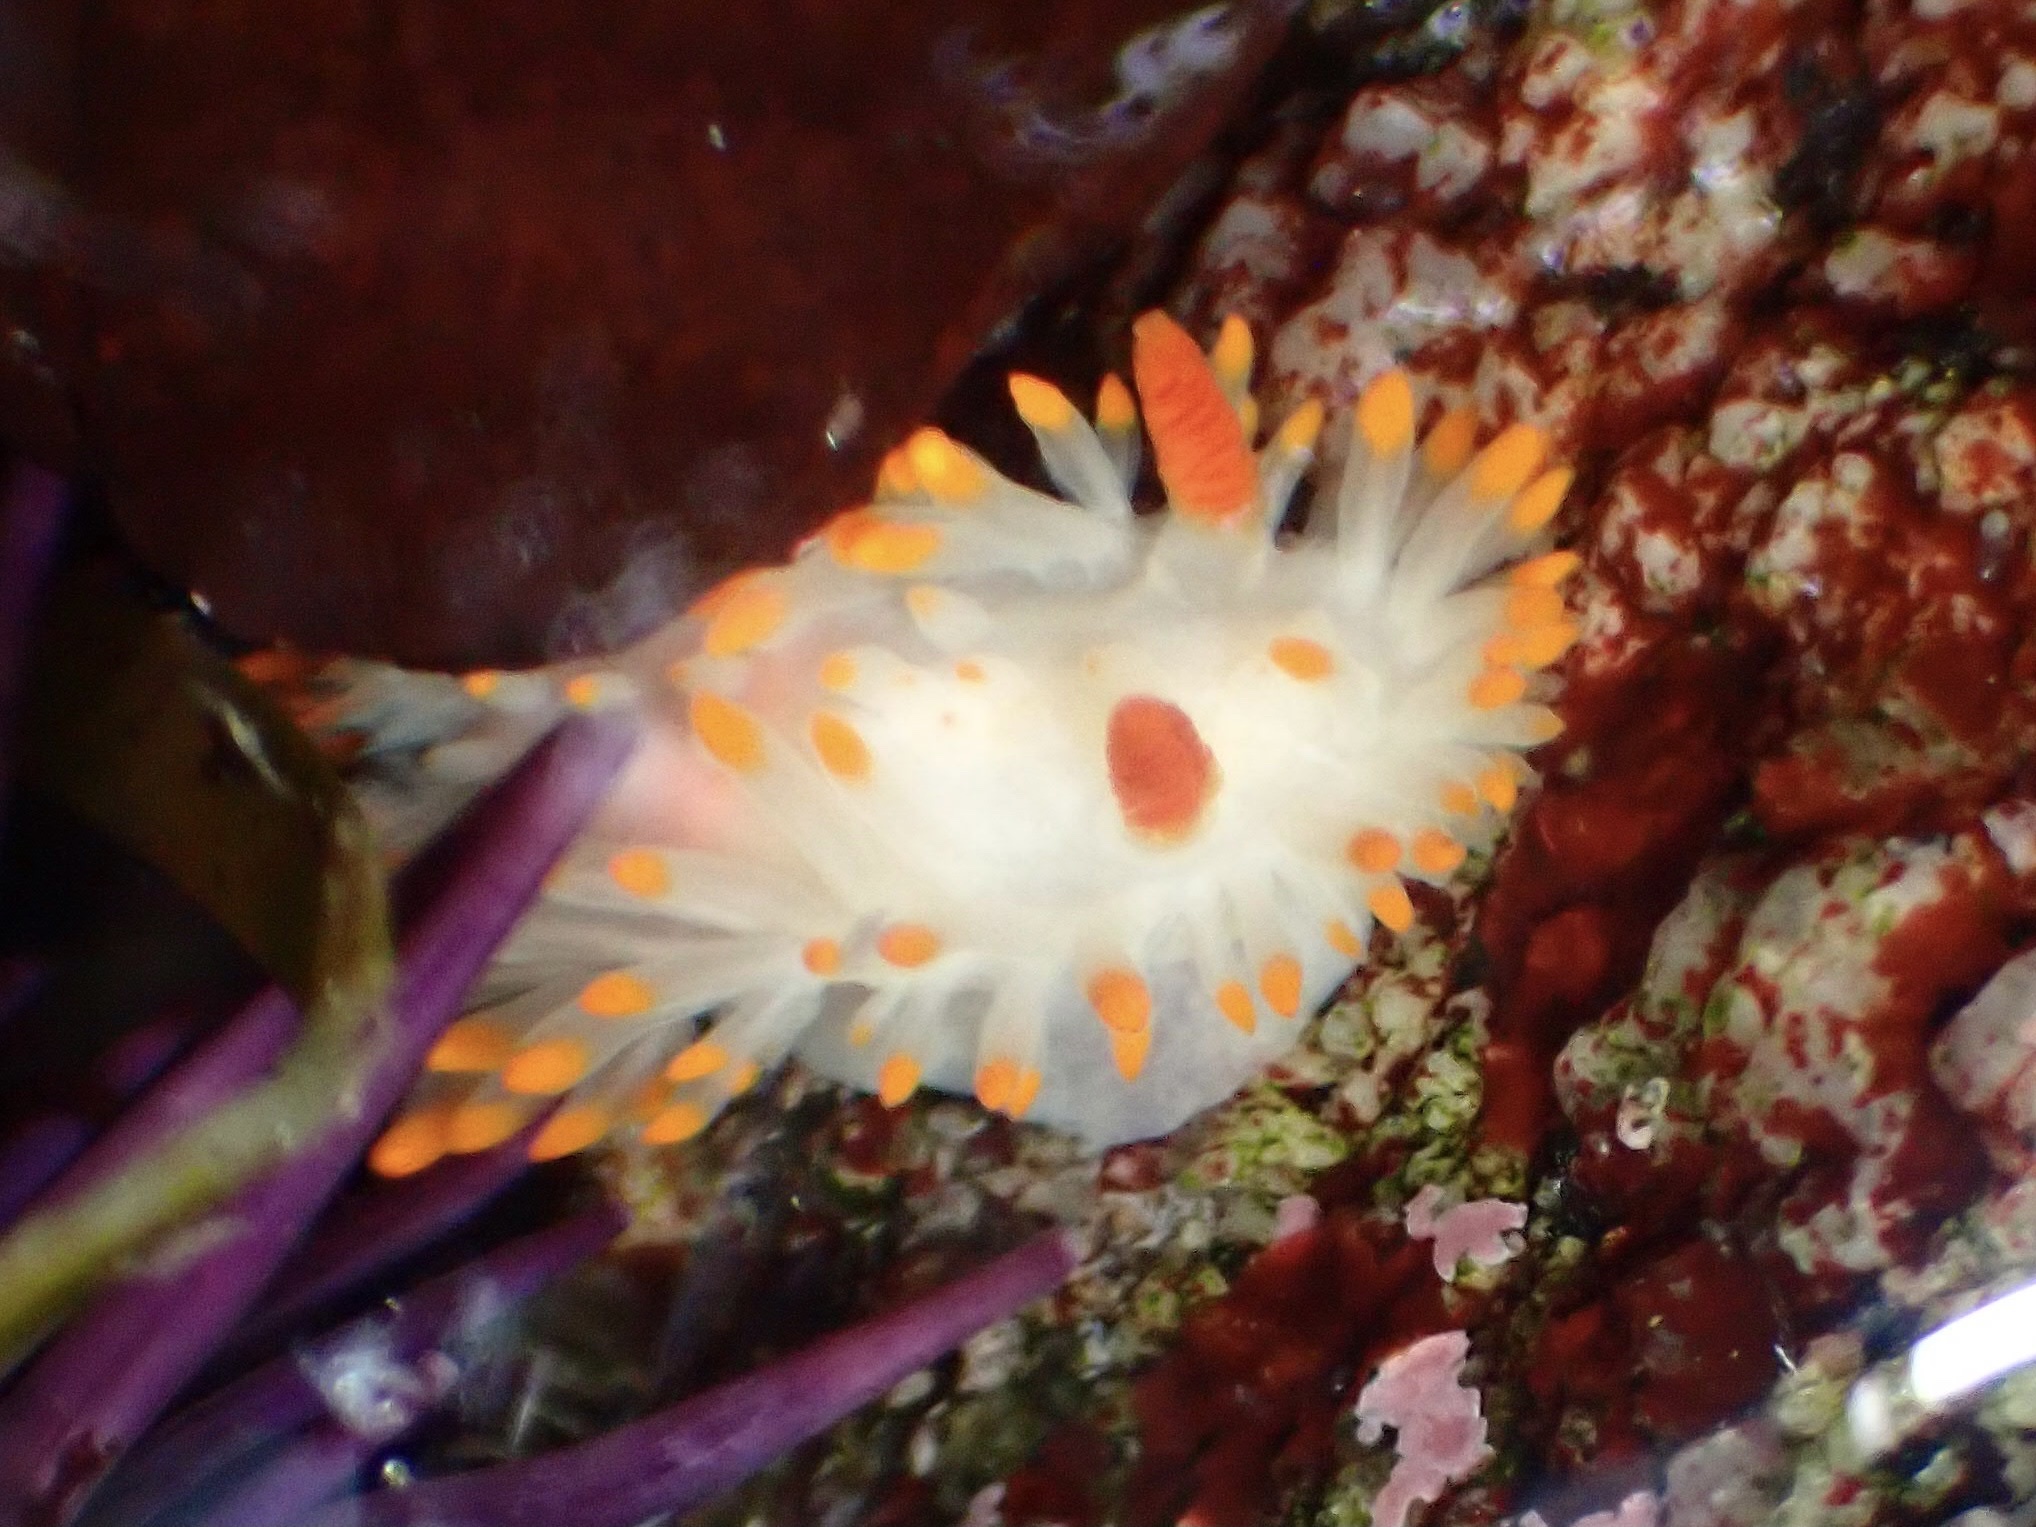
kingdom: Animalia
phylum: Mollusca
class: Gastropoda
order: Nudibranchia
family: Polyceridae
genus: Limacia
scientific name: Limacia cockerelli
